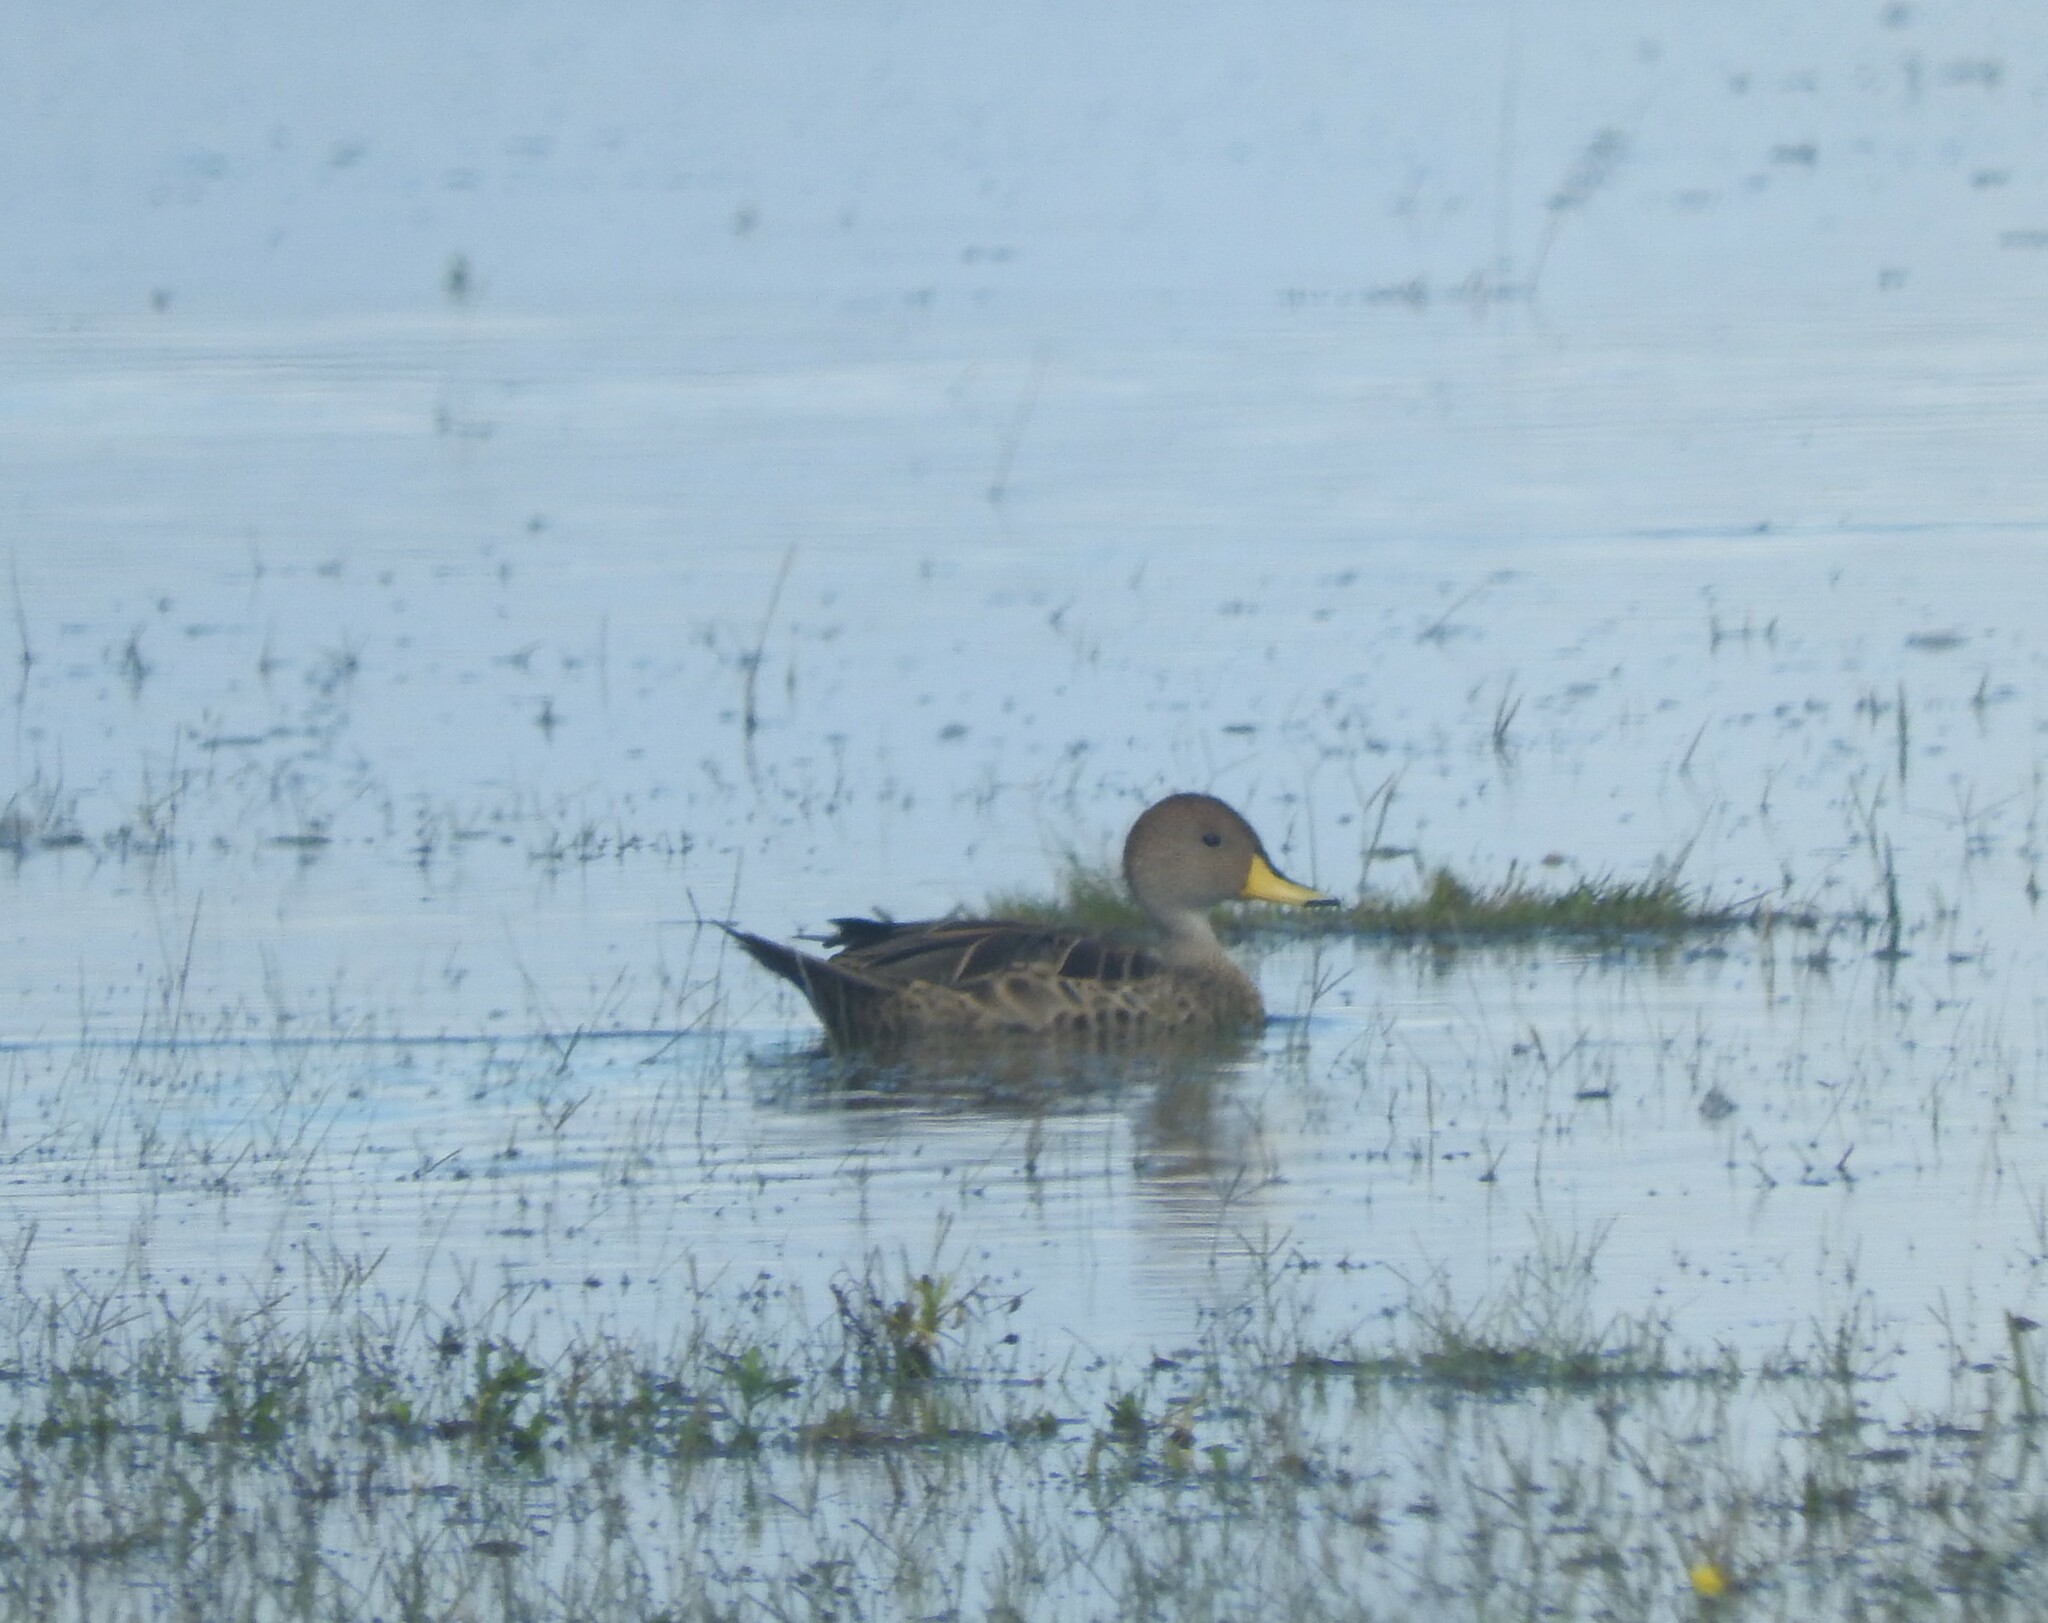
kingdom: Animalia
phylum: Chordata
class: Aves
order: Anseriformes
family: Anatidae
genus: Anas
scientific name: Anas georgica
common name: Yellow-billed pintail
